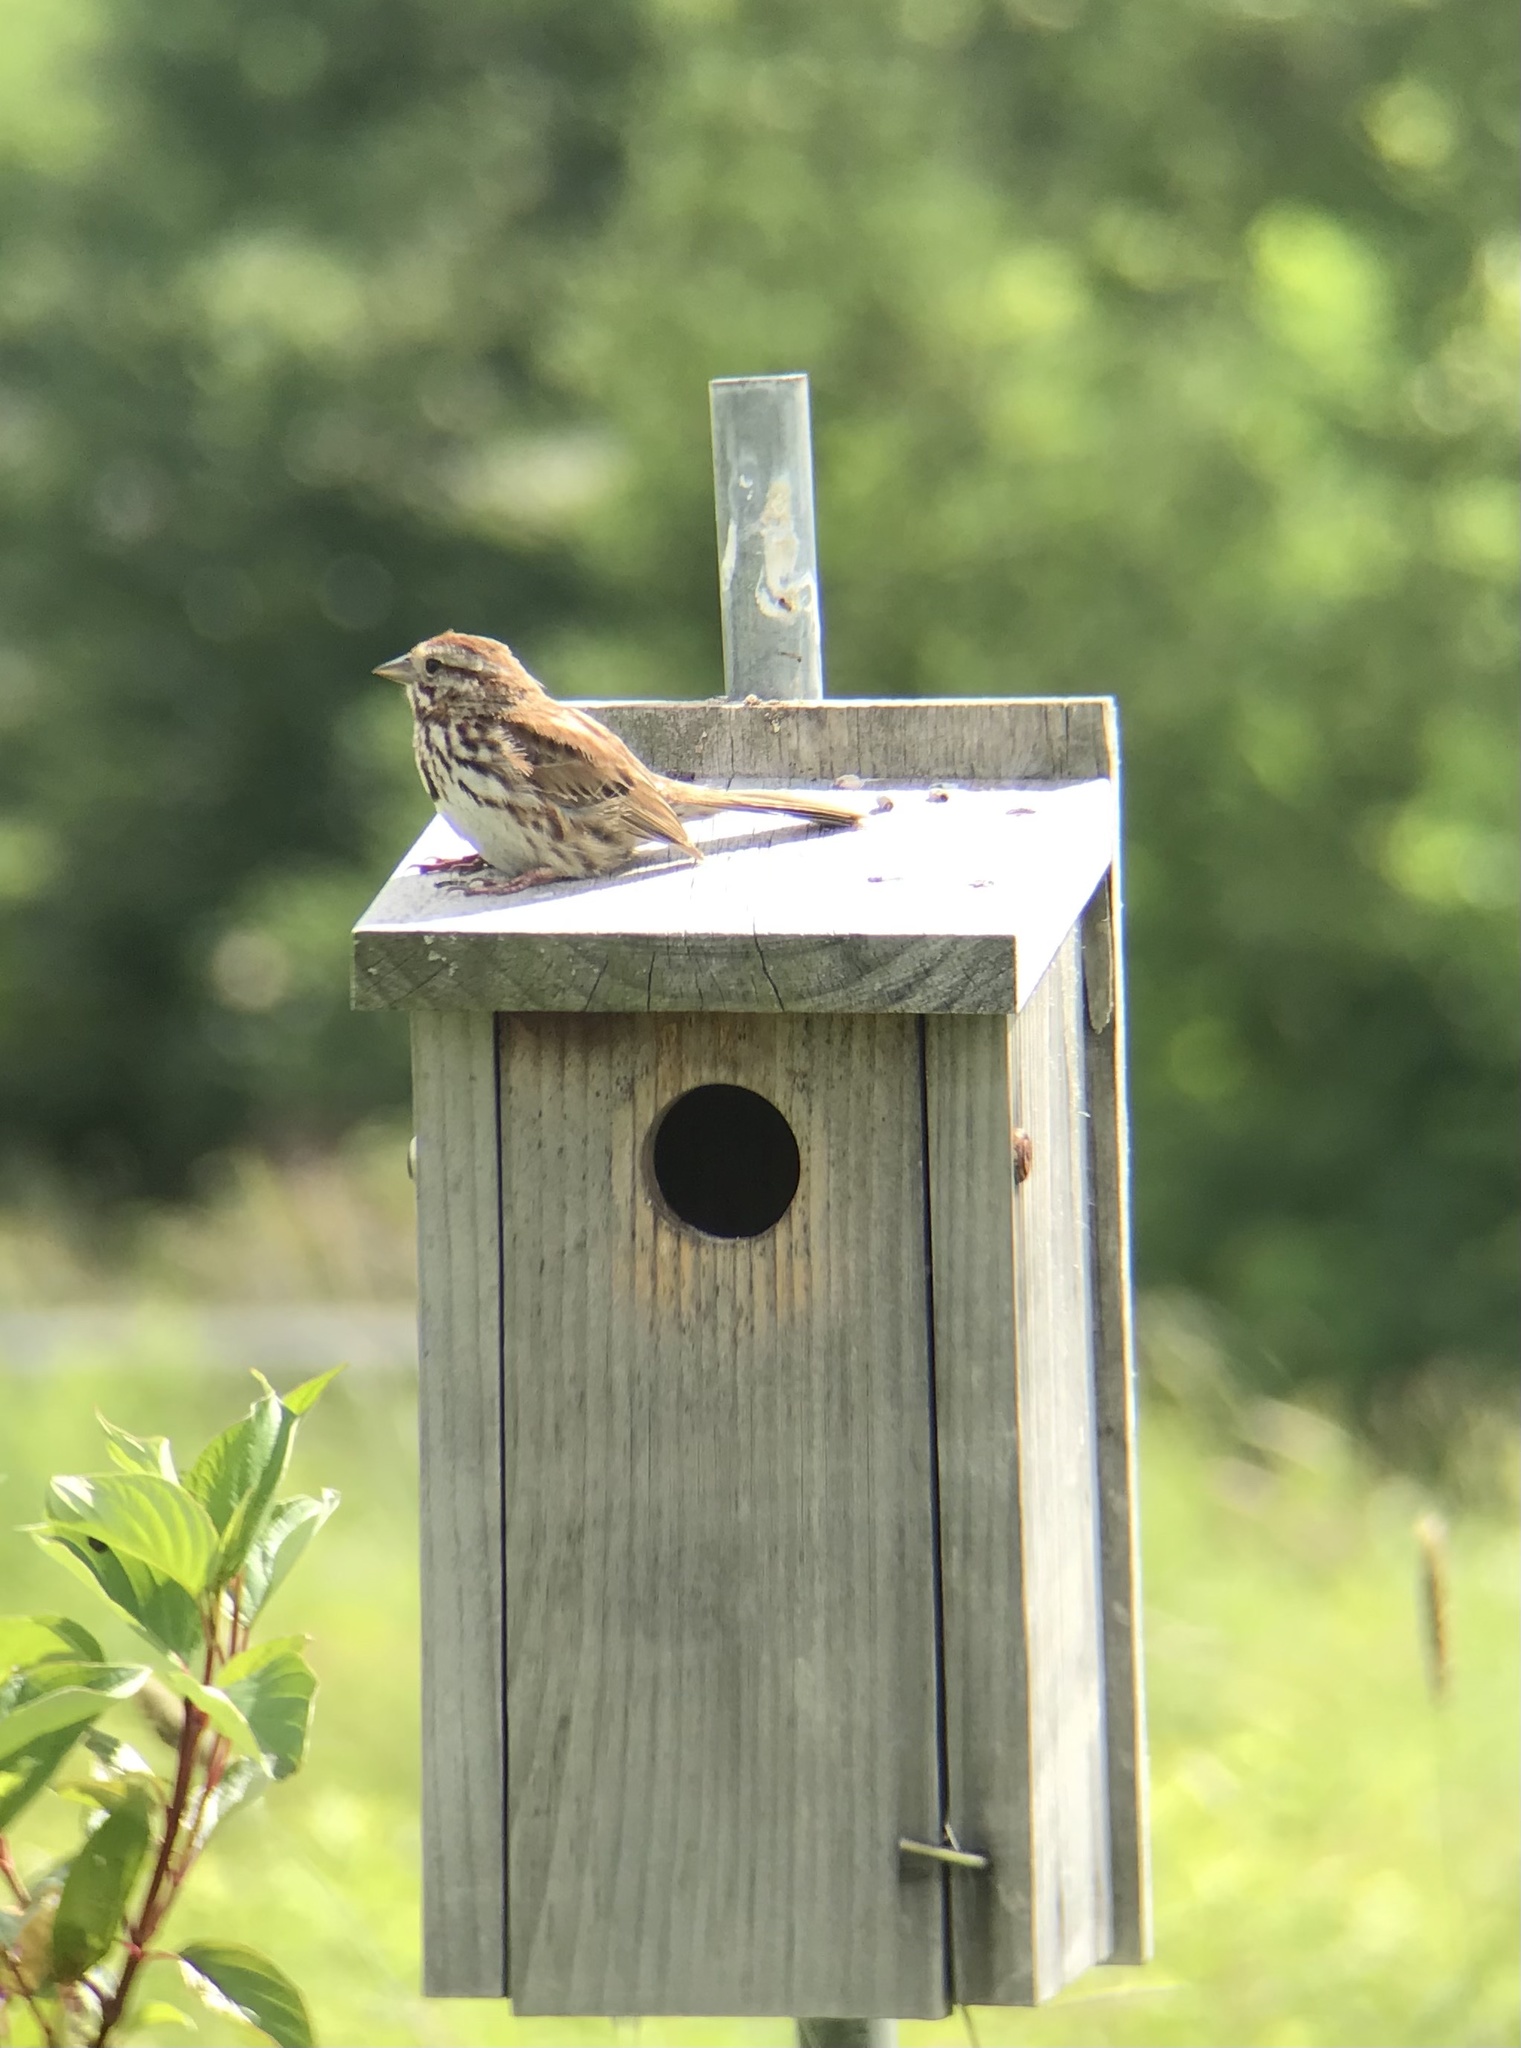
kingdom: Animalia
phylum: Chordata
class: Aves
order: Passeriformes
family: Passerellidae
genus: Melospiza
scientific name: Melospiza melodia
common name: Song sparrow
